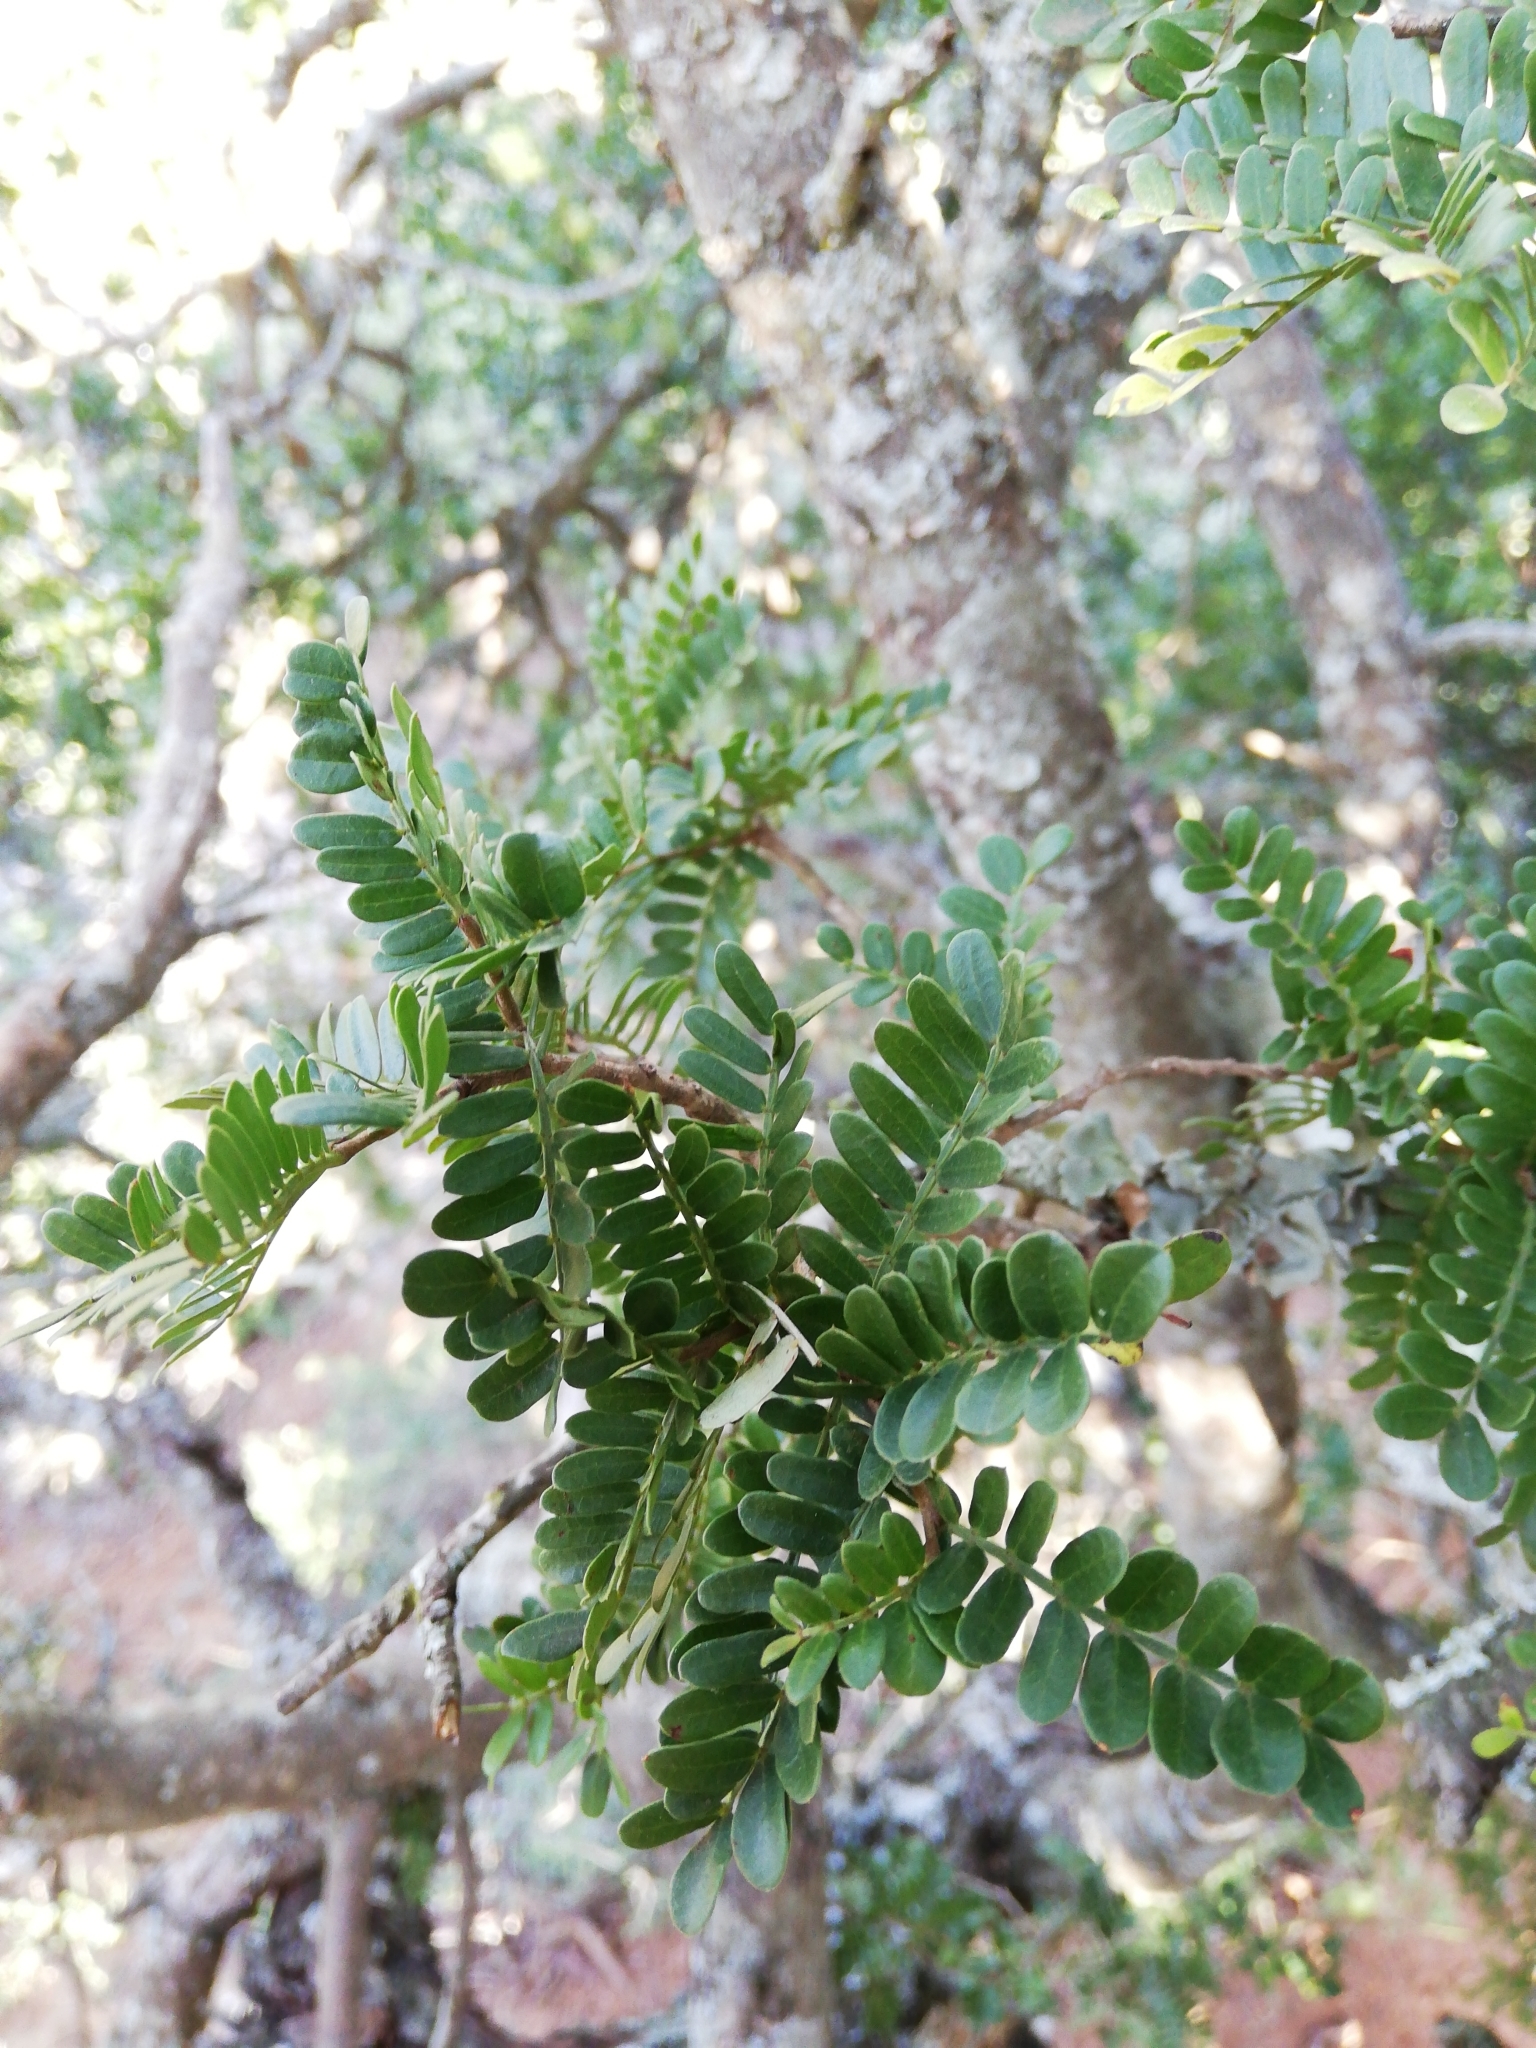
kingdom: Plantae
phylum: Tracheophyta
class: Magnoliopsida
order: Fabales
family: Fabaceae
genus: Schotia
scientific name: Schotia afra
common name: Hottentot's bean
